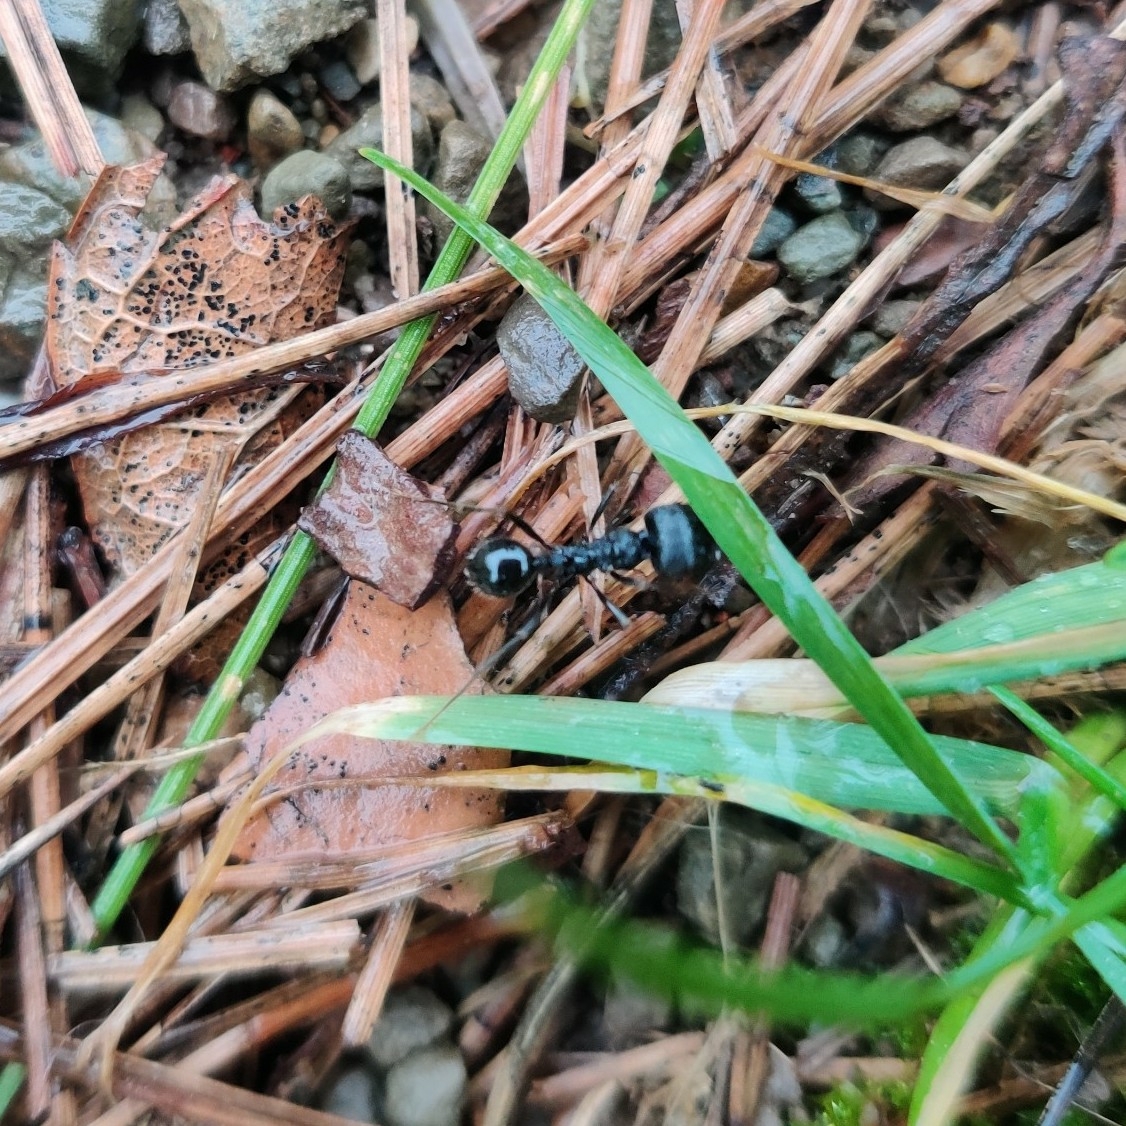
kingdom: Animalia
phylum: Arthropoda
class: Insecta
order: Hymenoptera
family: Formicidae
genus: Messor
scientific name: Messor himalayanus
